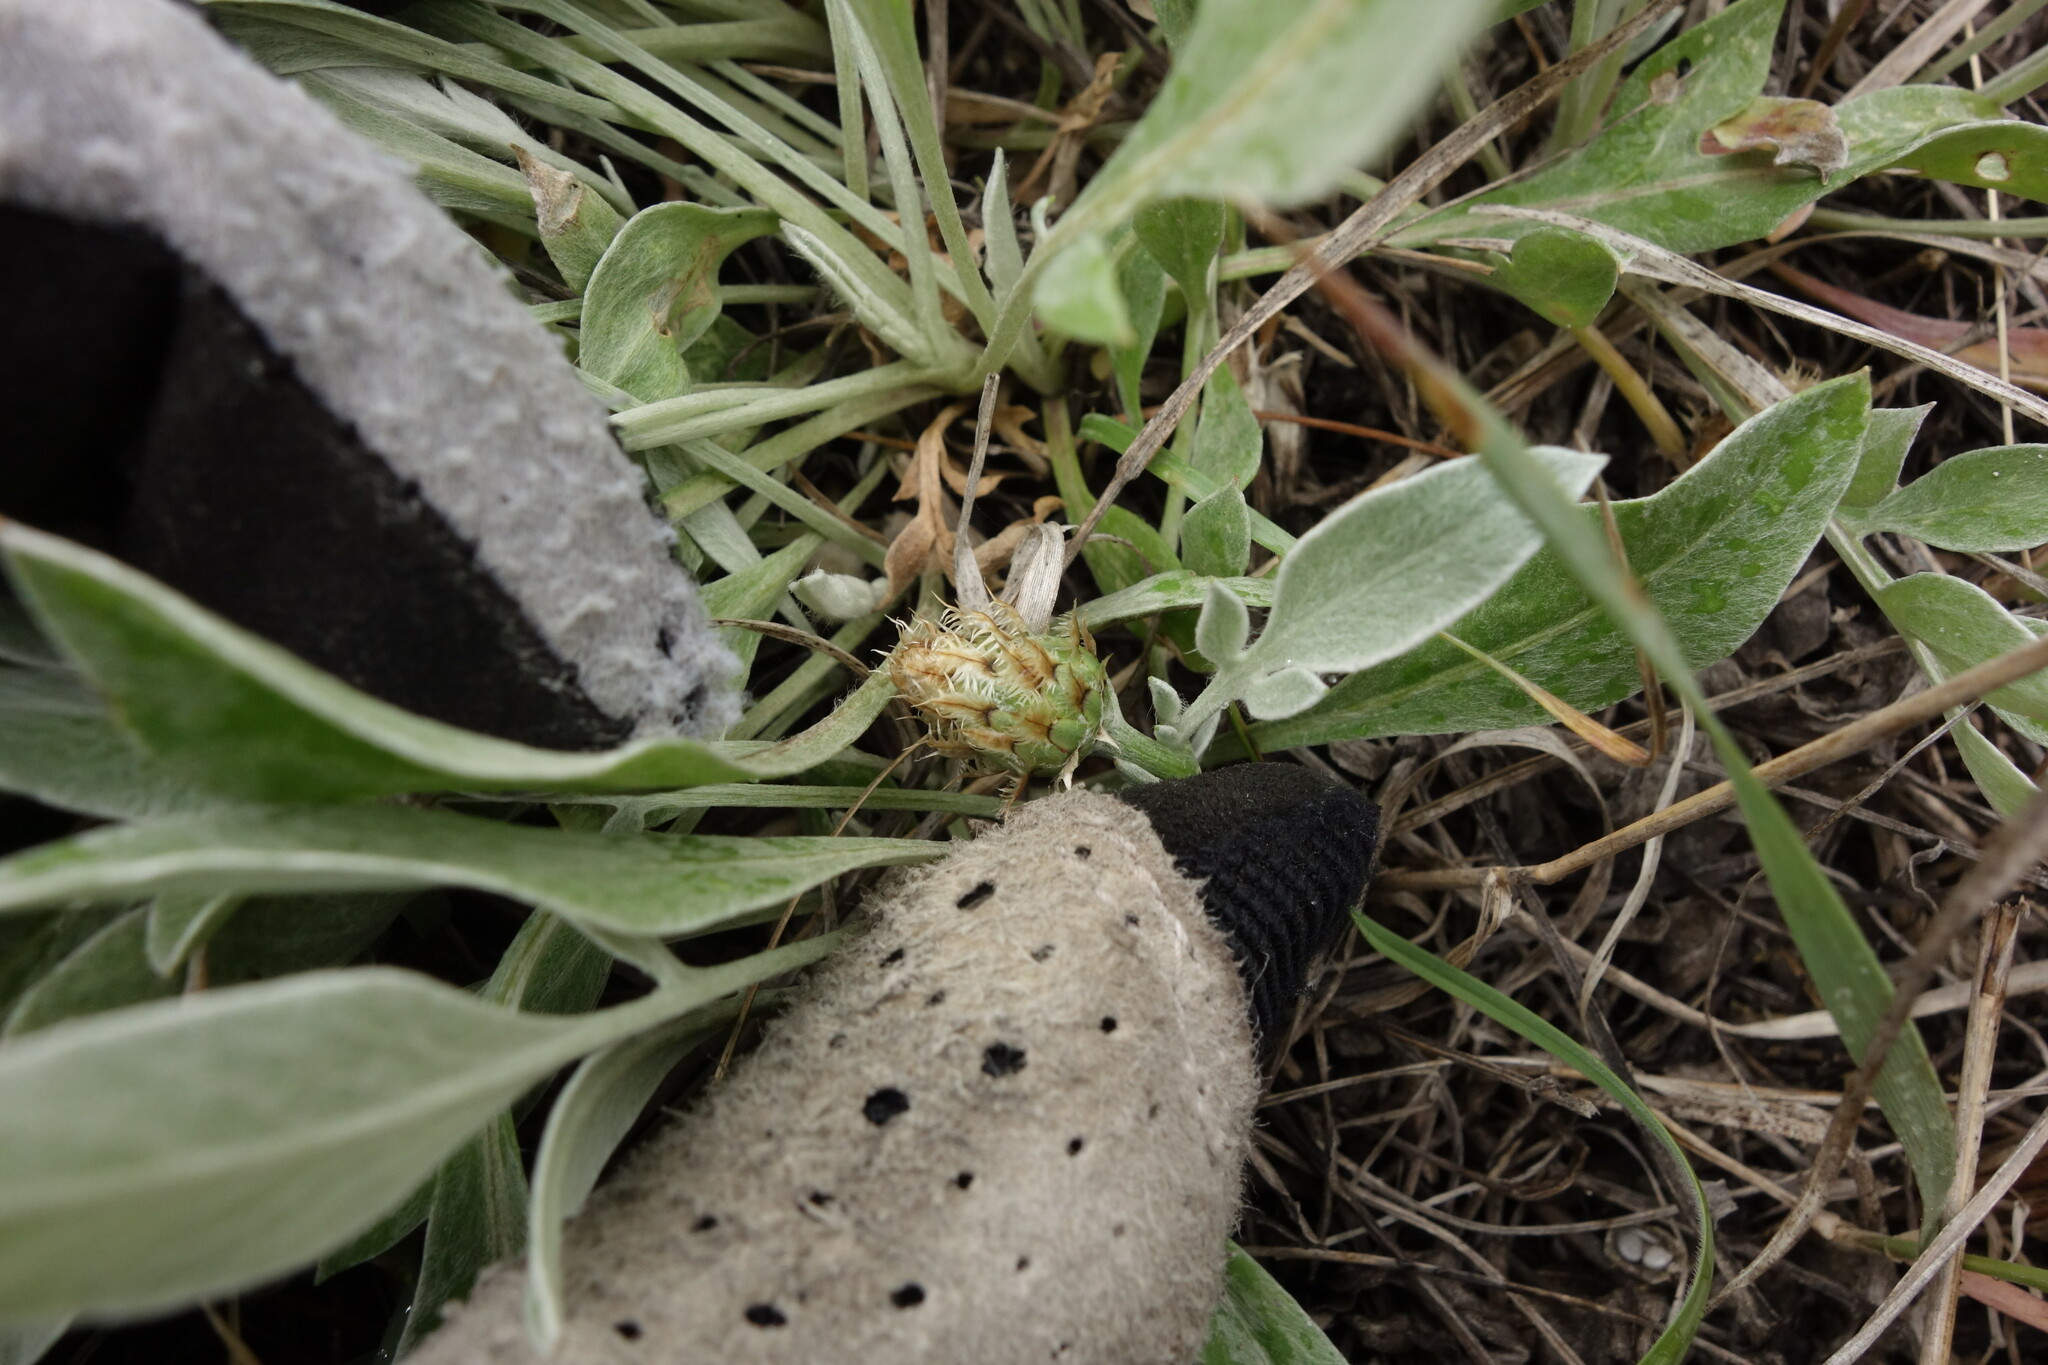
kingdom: Plantae
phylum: Tracheophyta
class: Magnoliopsida
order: Asterales
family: Asteraceae
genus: Psephellus
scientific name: Psephellus marschallianus
